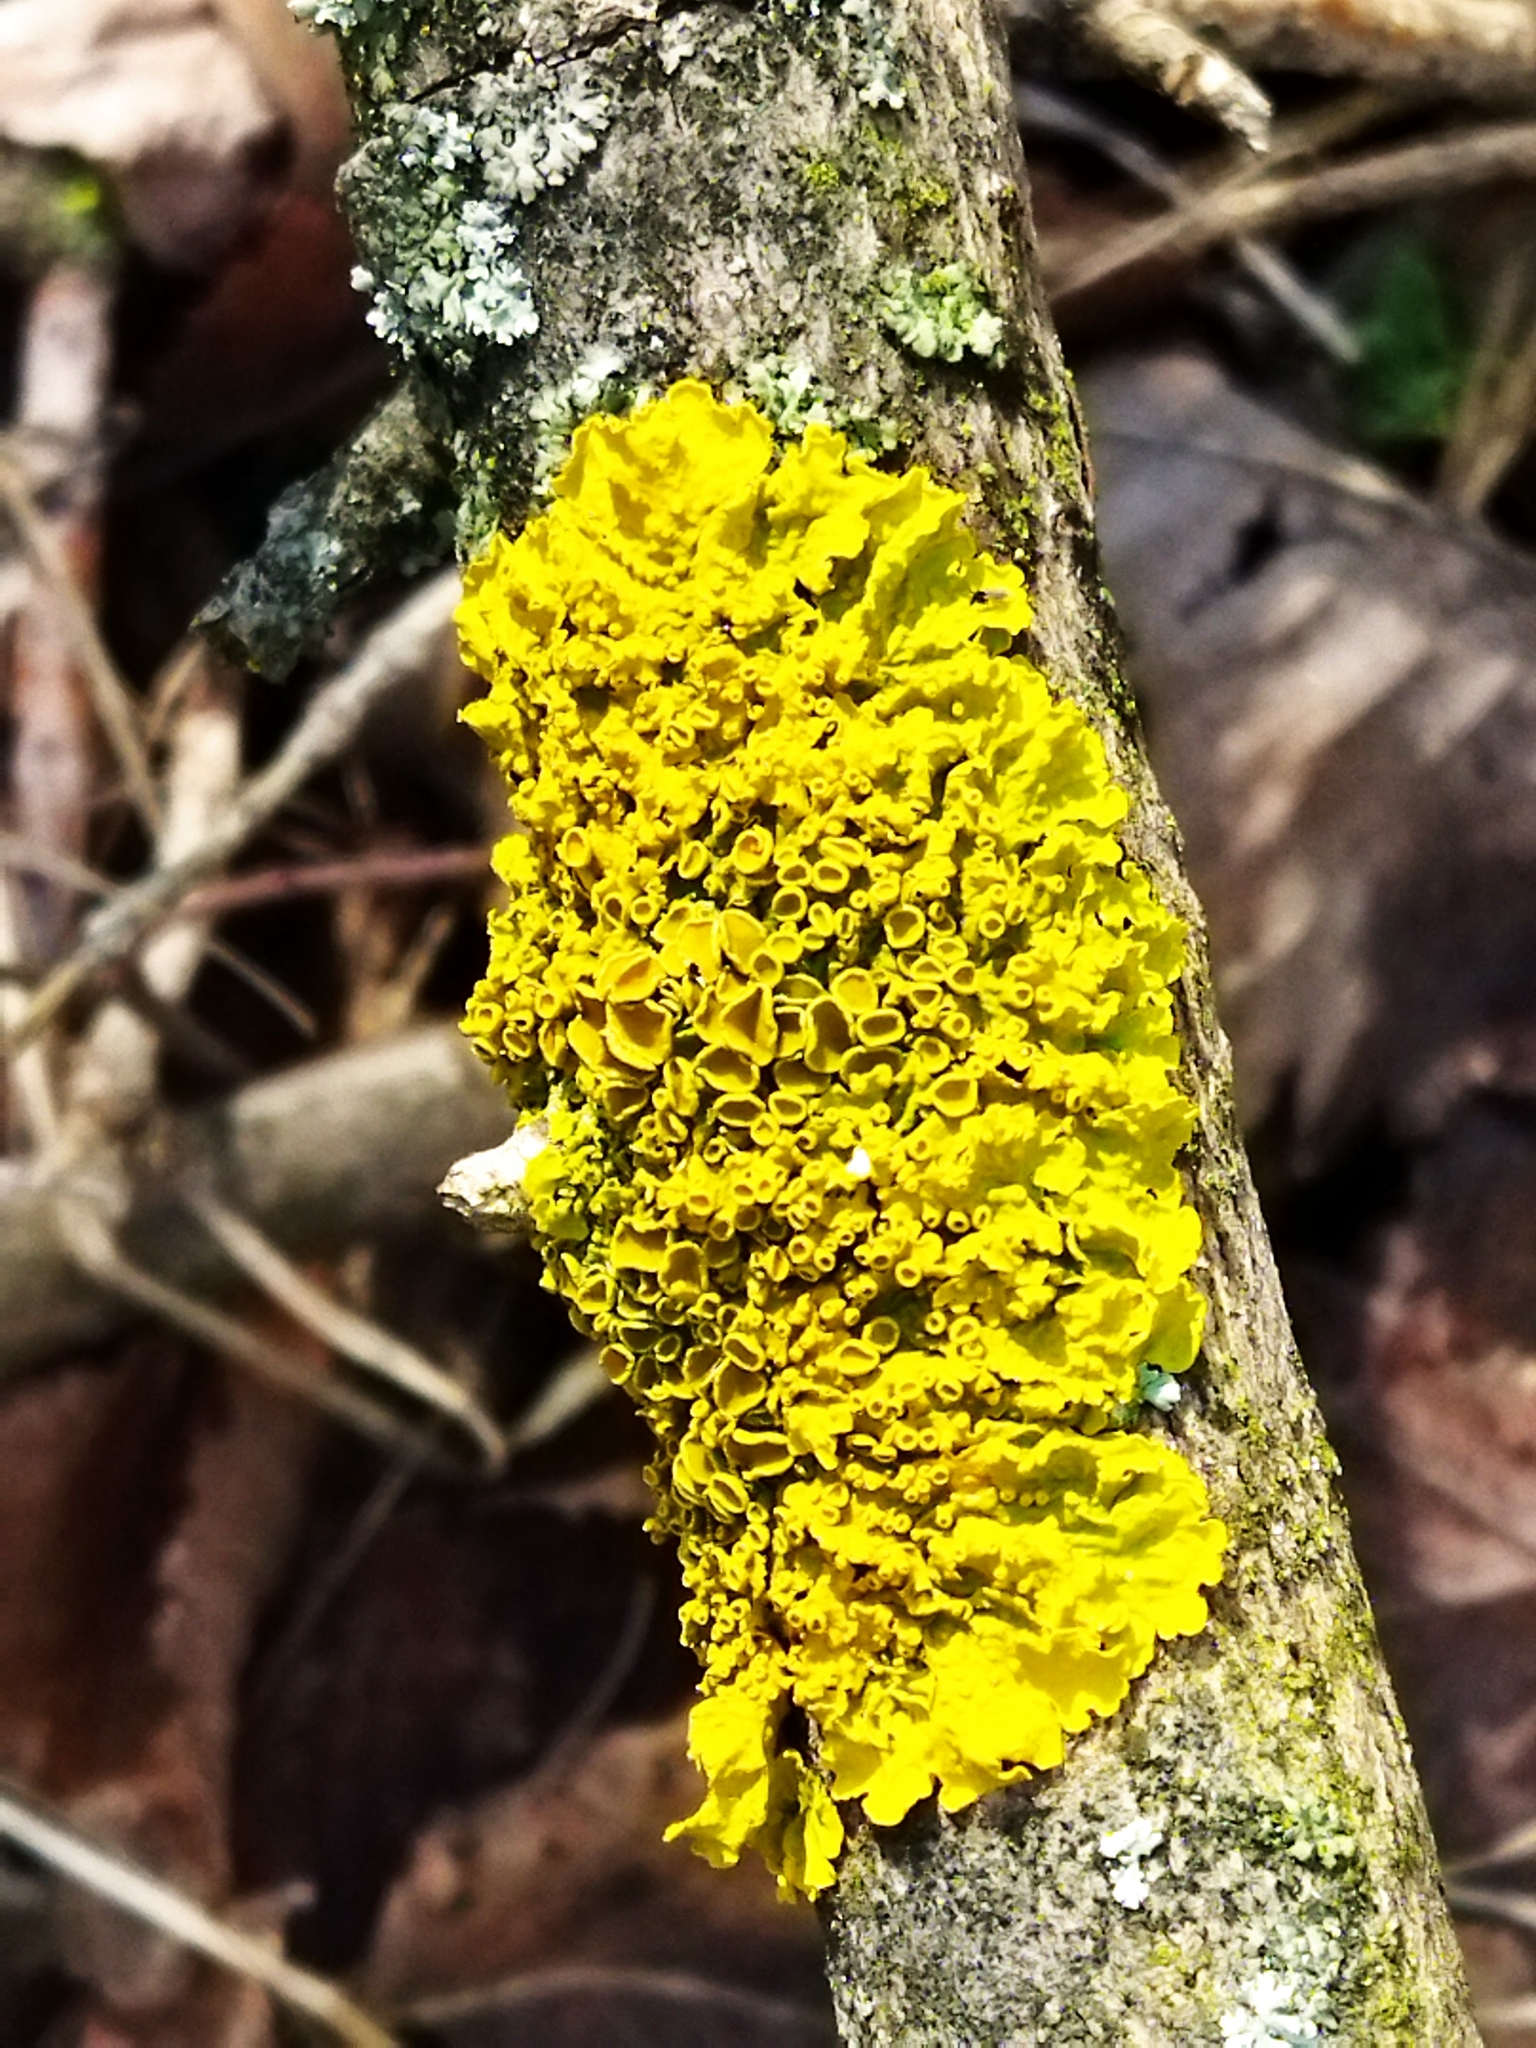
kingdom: Fungi
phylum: Ascomycota
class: Lecanoromycetes
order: Teloschistales
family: Teloschistaceae
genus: Xanthoria
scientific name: Xanthoria parietina
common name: Common orange lichen
